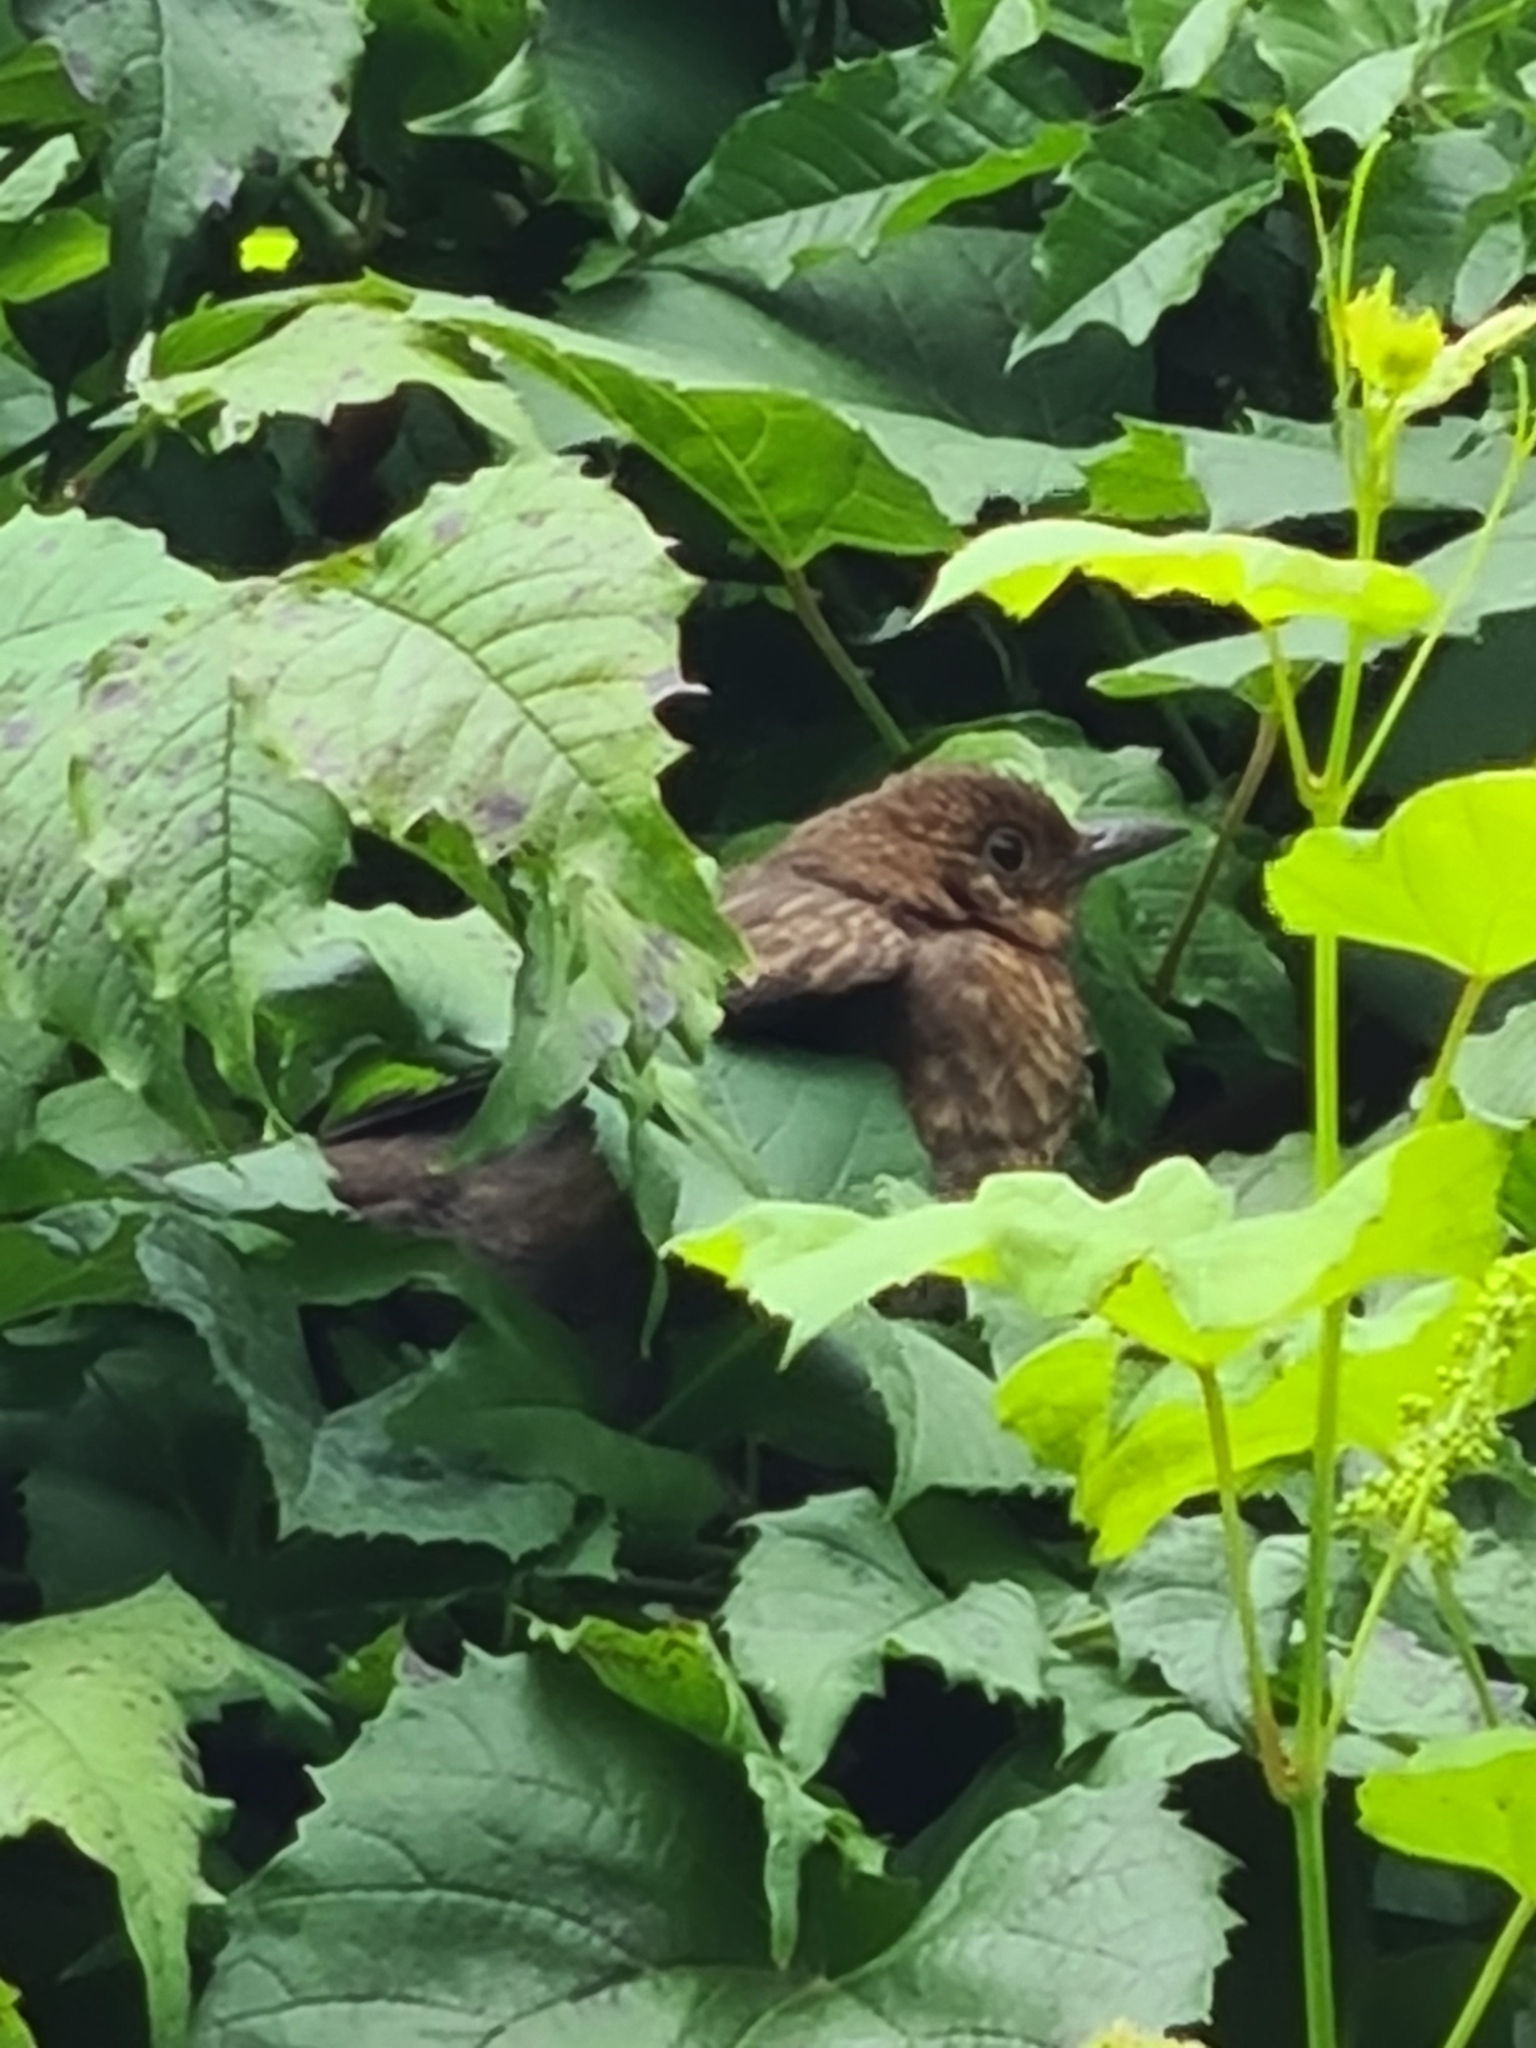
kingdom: Animalia
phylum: Chordata
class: Aves
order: Passeriformes
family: Turdidae
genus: Turdus
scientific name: Turdus merula
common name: Common blackbird
